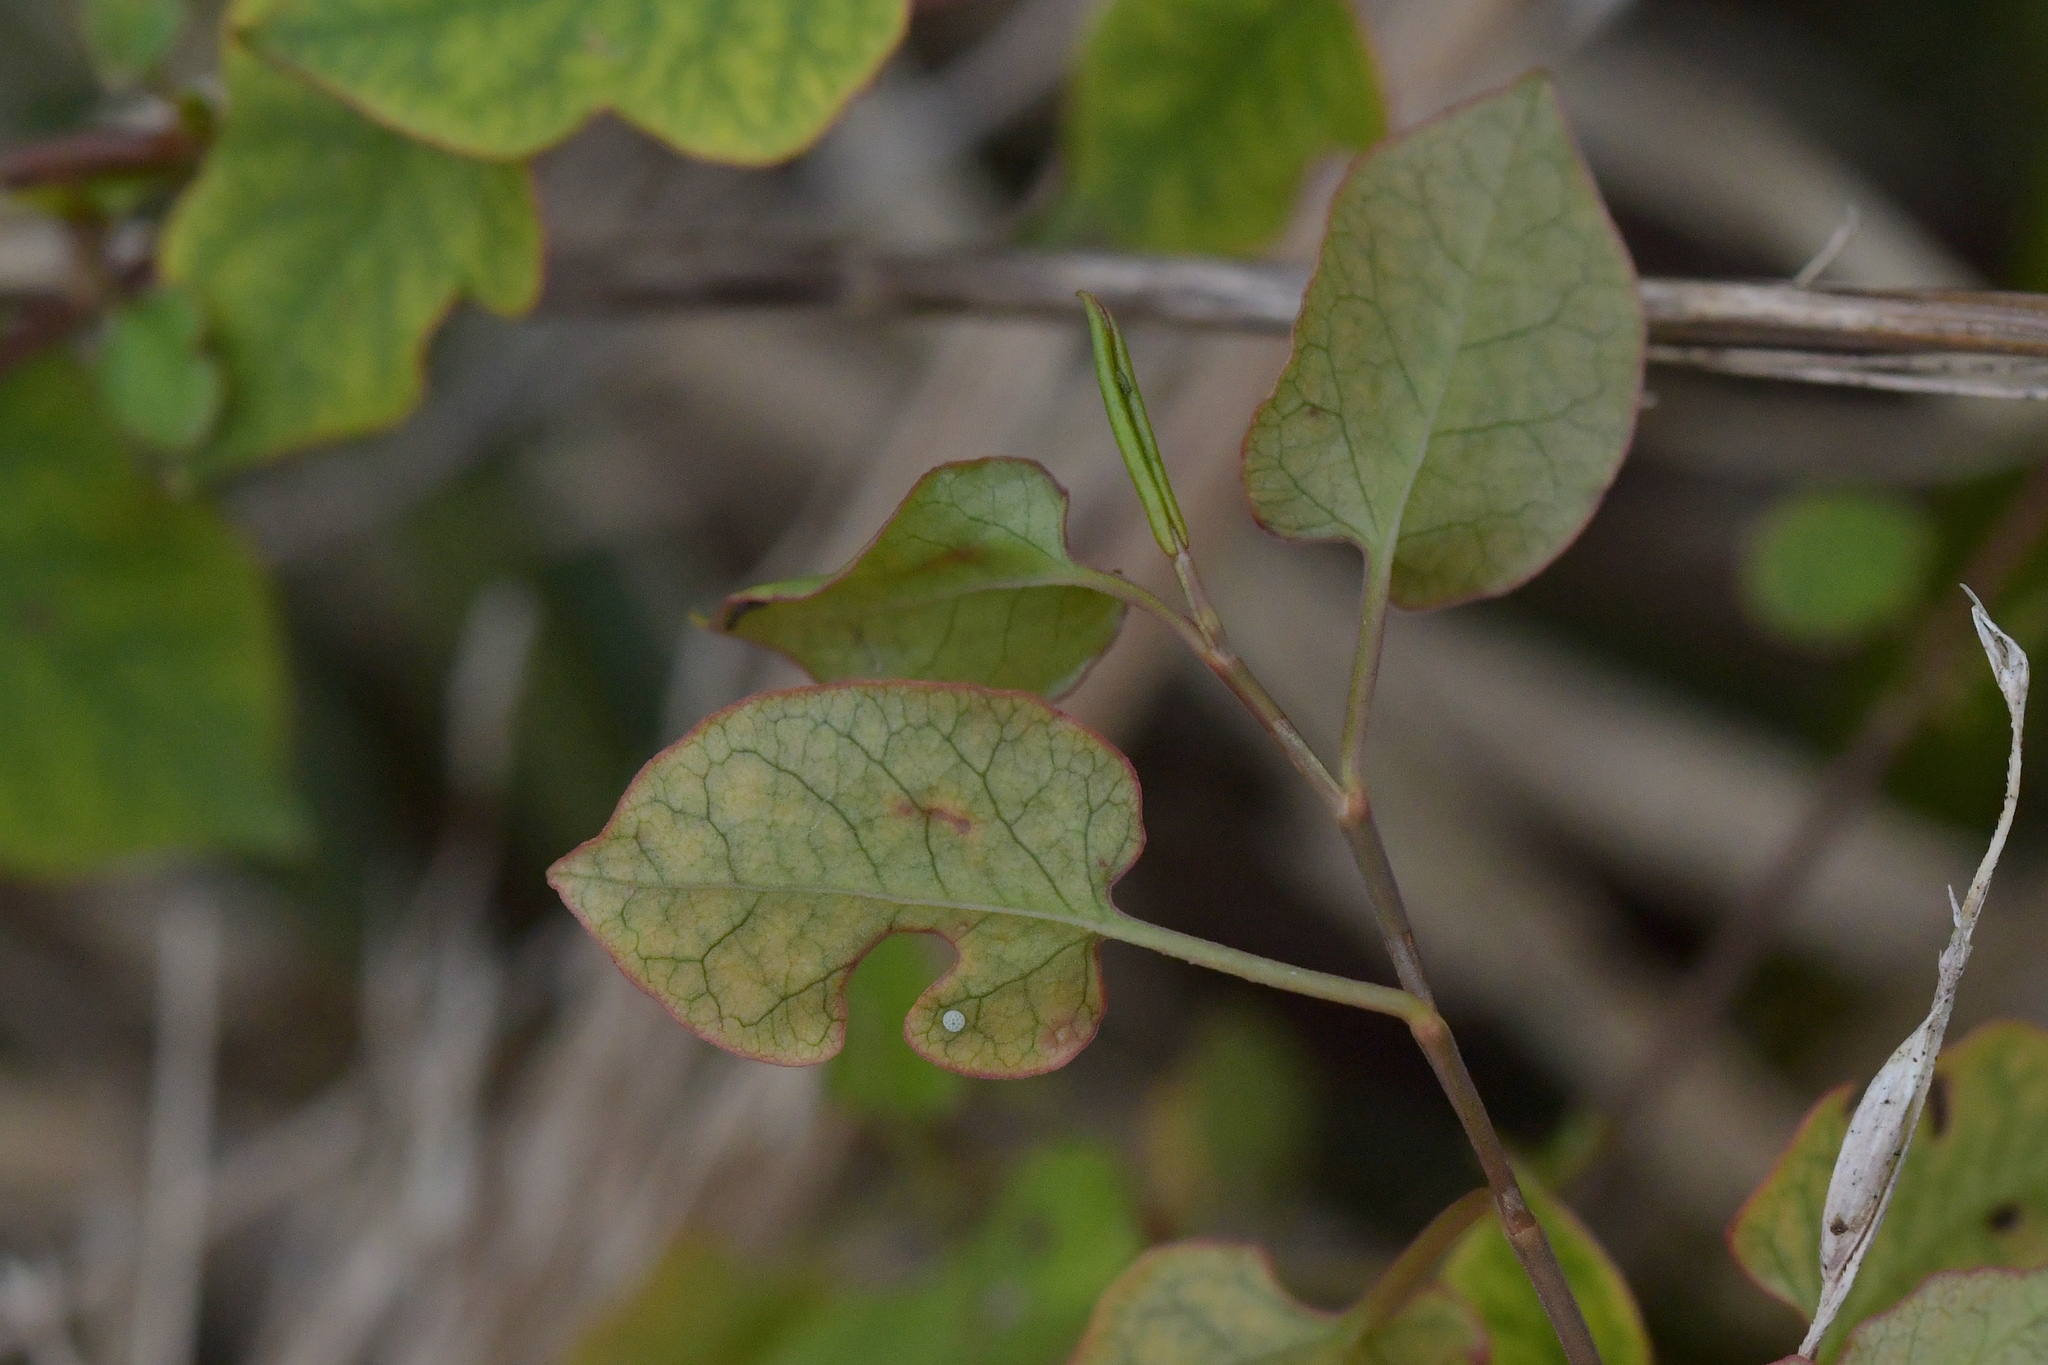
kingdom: Plantae
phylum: Tracheophyta
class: Magnoliopsida
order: Caryophyllales
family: Polygonaceae
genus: Muehlenbeckia
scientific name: Muehlenbeckia australis
